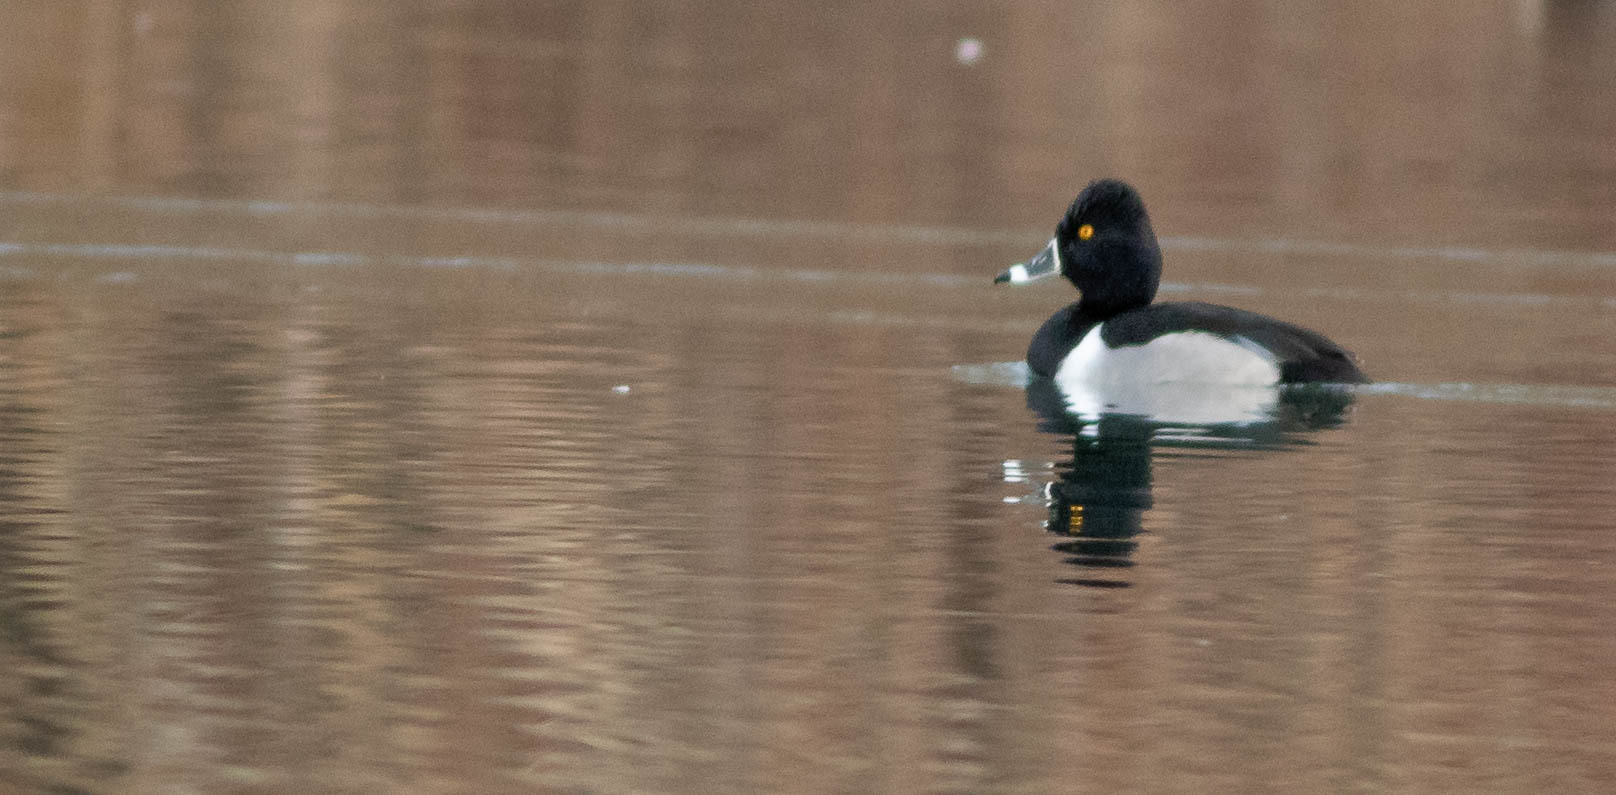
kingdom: Animalia
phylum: Chordata
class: Aves
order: Anseriformes
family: Anatidae
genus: Aythya
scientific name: Aythya collaris
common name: Ring-necked duck
